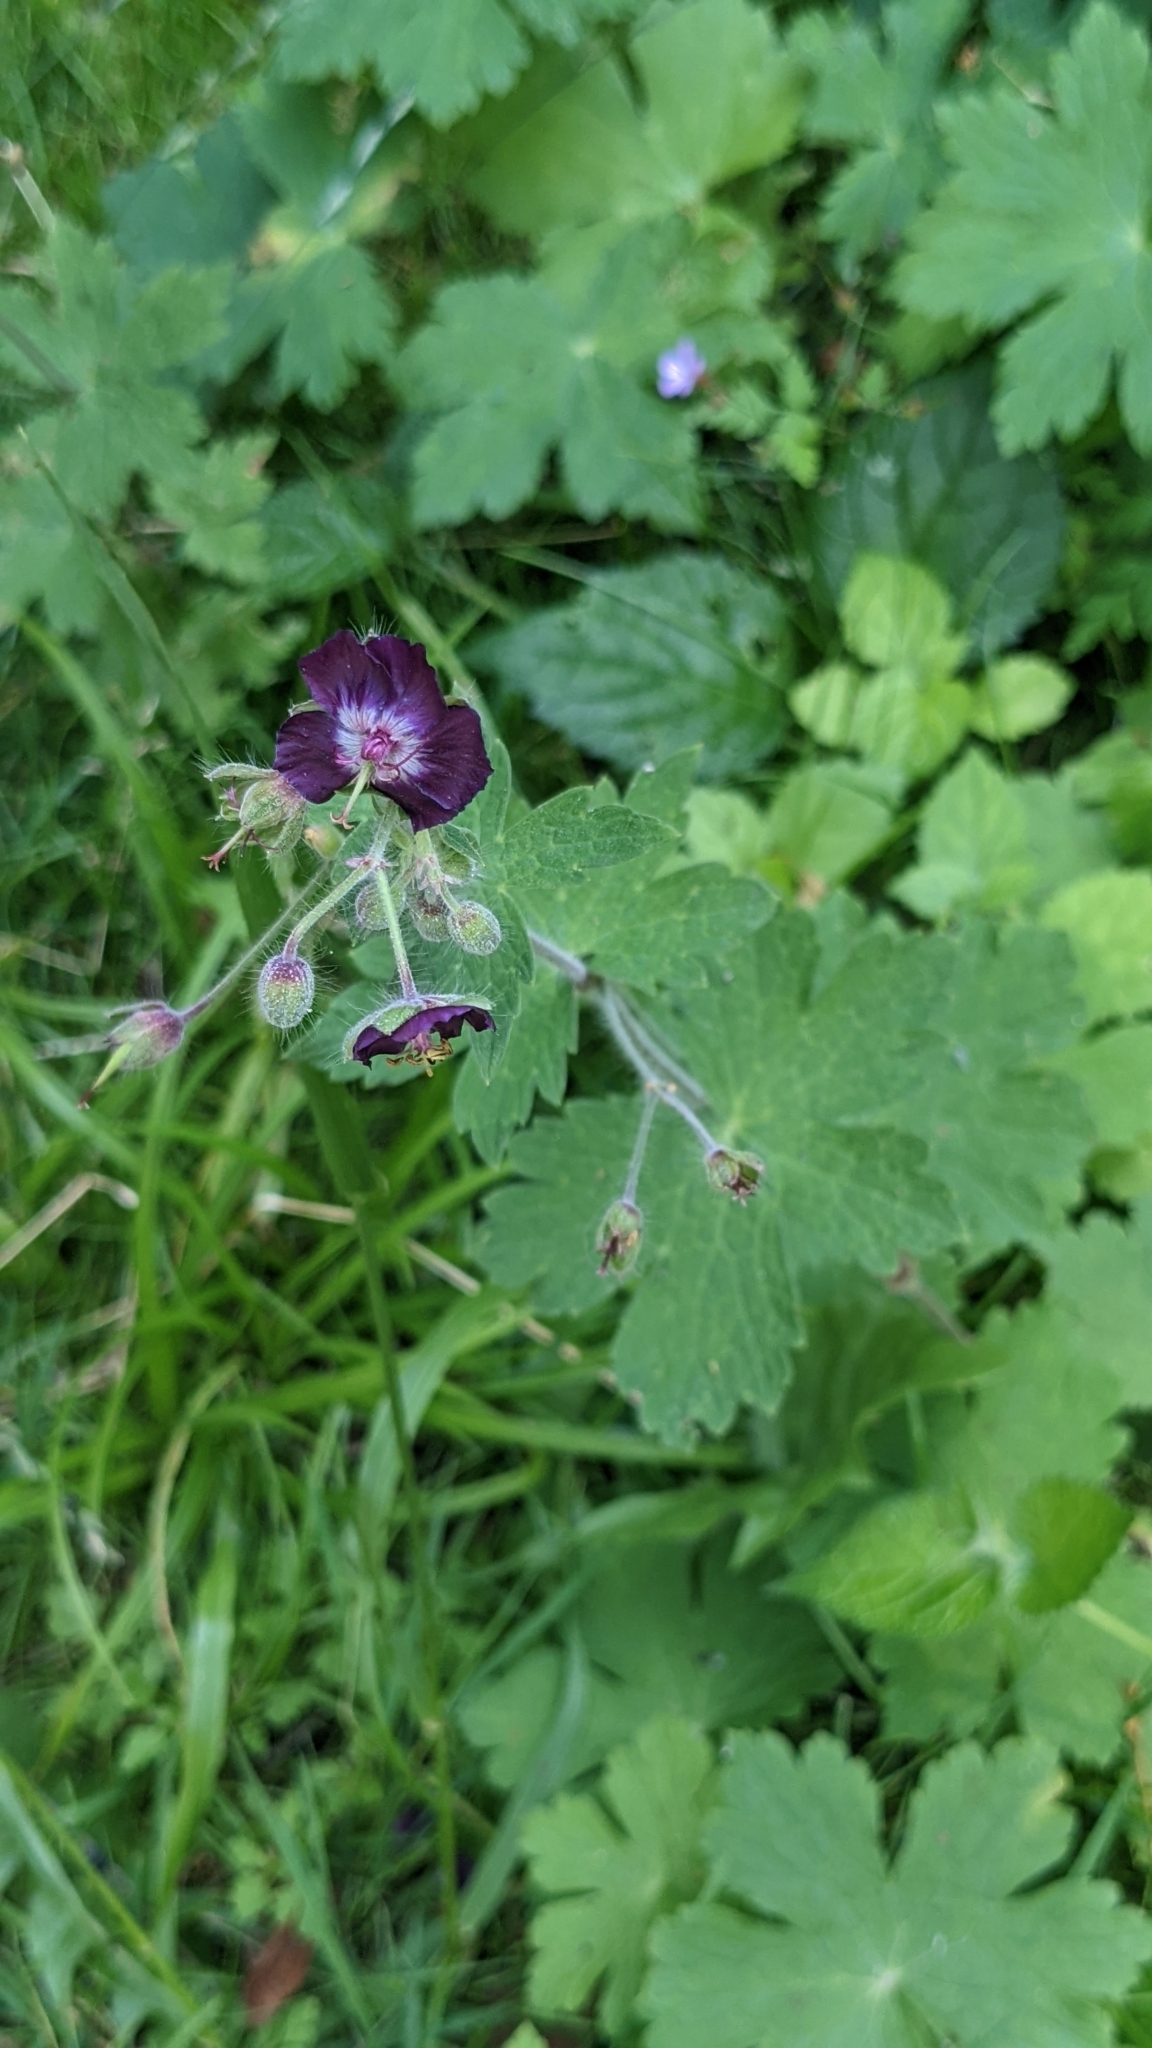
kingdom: Plantae
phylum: Tracheophyta
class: Magnoliopsida
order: Geraniales
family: Geraniaceae
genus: Geranium
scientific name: Geranium phaeum
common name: Dusky crane's-bill
